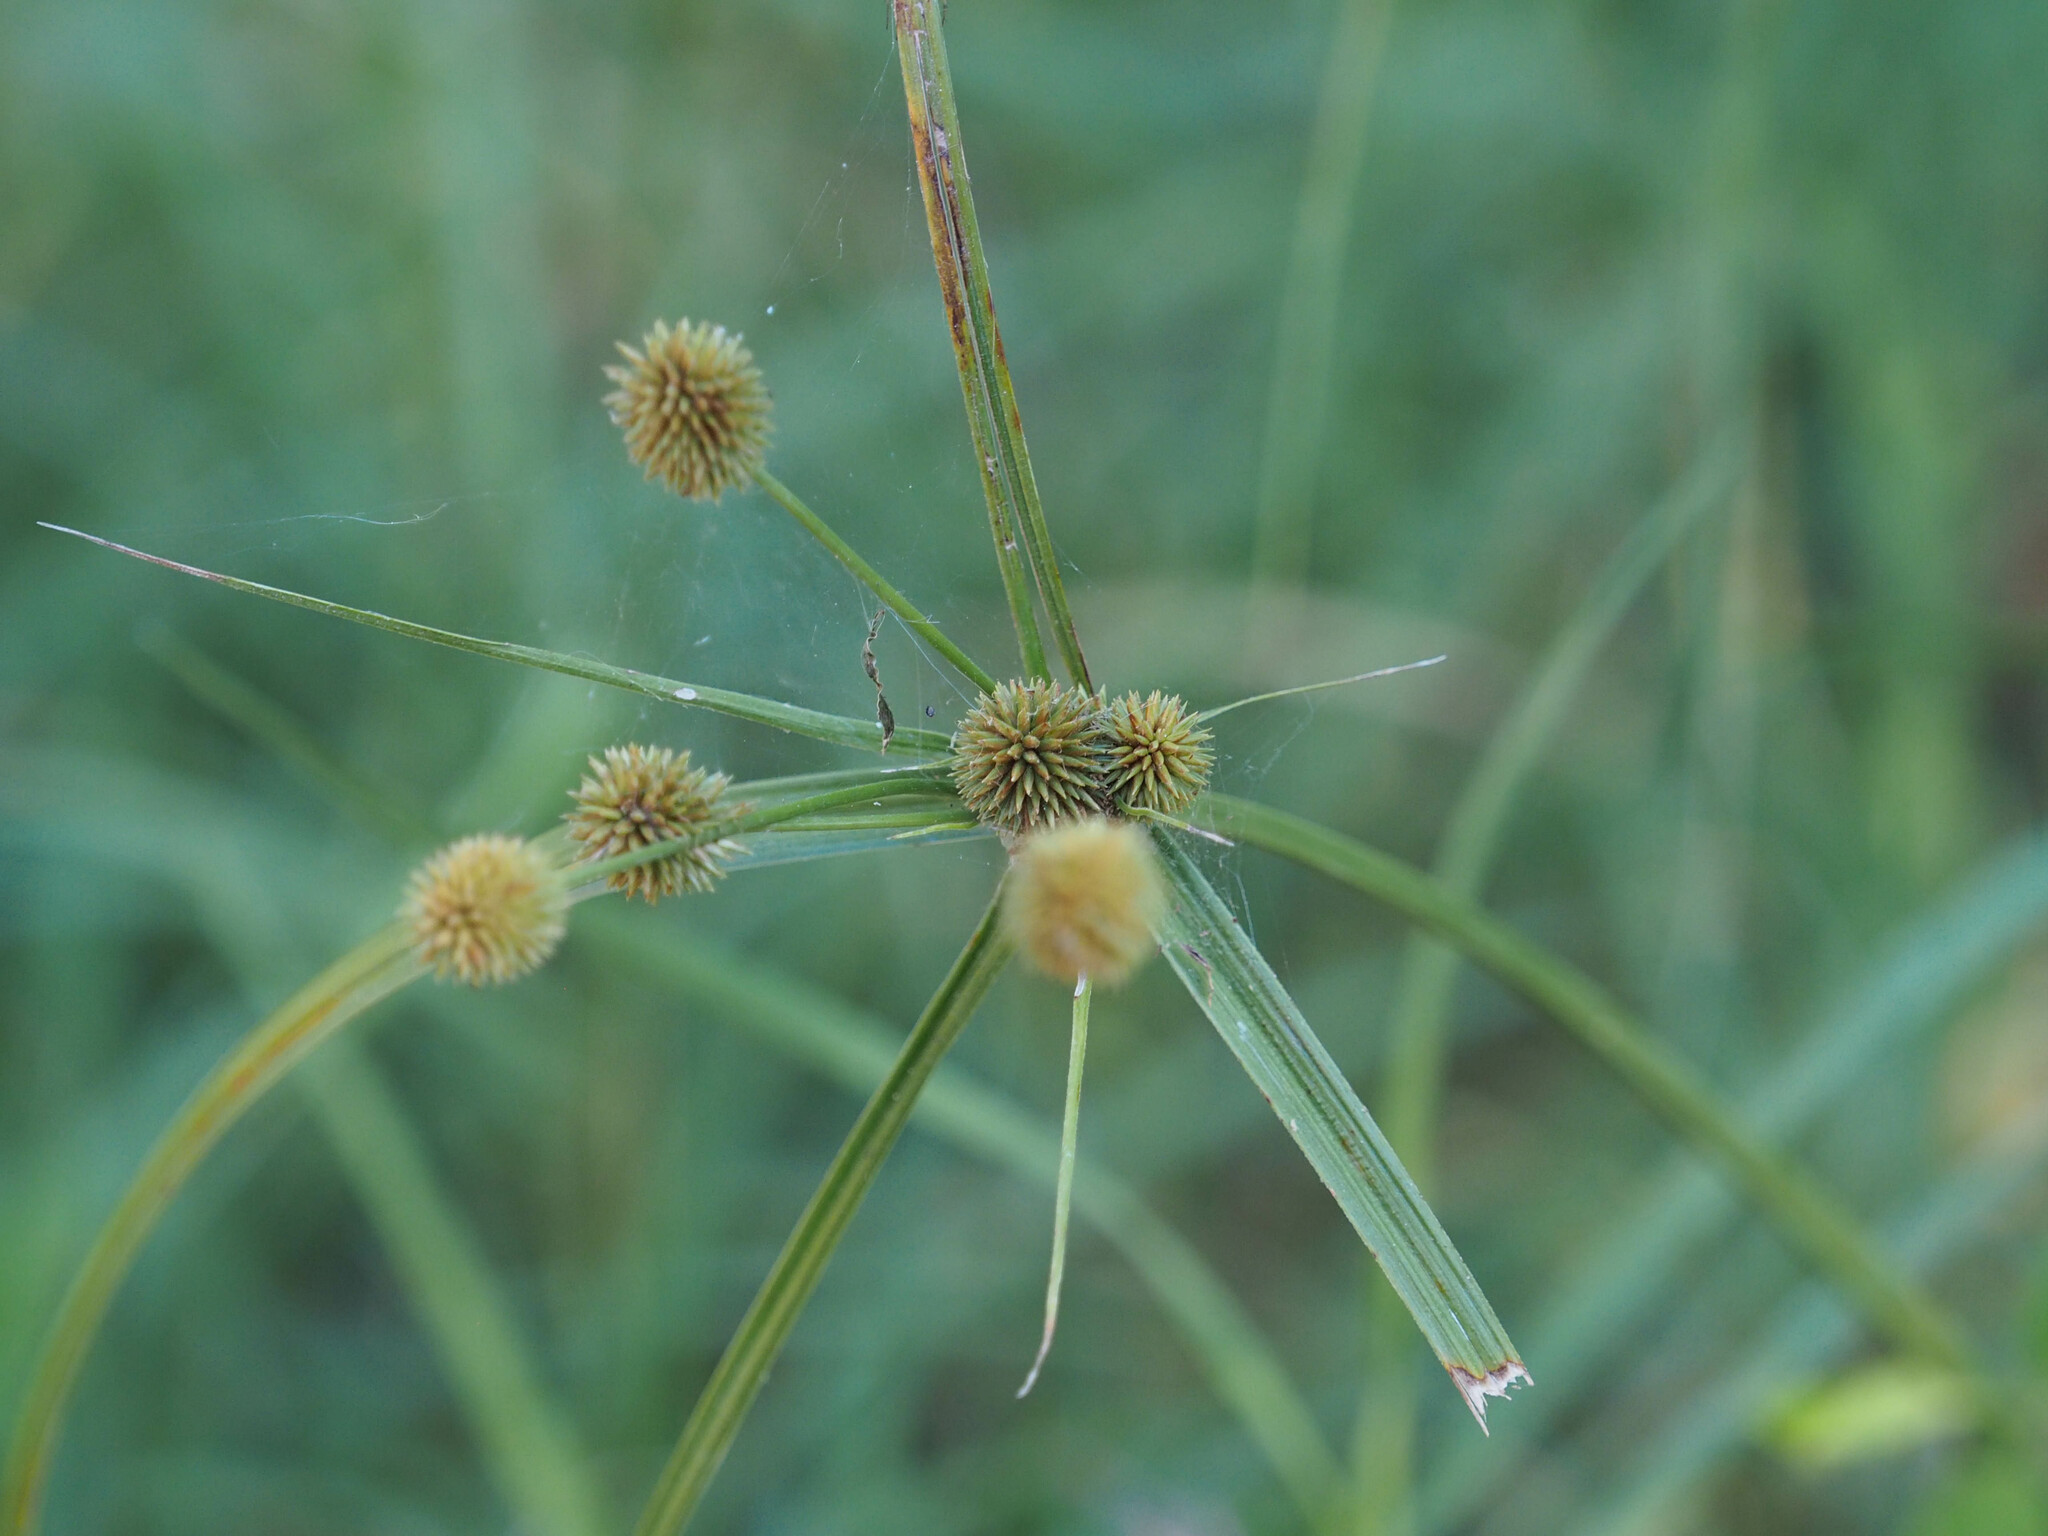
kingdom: Plantae
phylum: Tracheophyta
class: Liliopsida
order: Poales
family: Cyperaceae
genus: Cyperus
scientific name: Cyperus echinatus
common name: Teasel sedge
